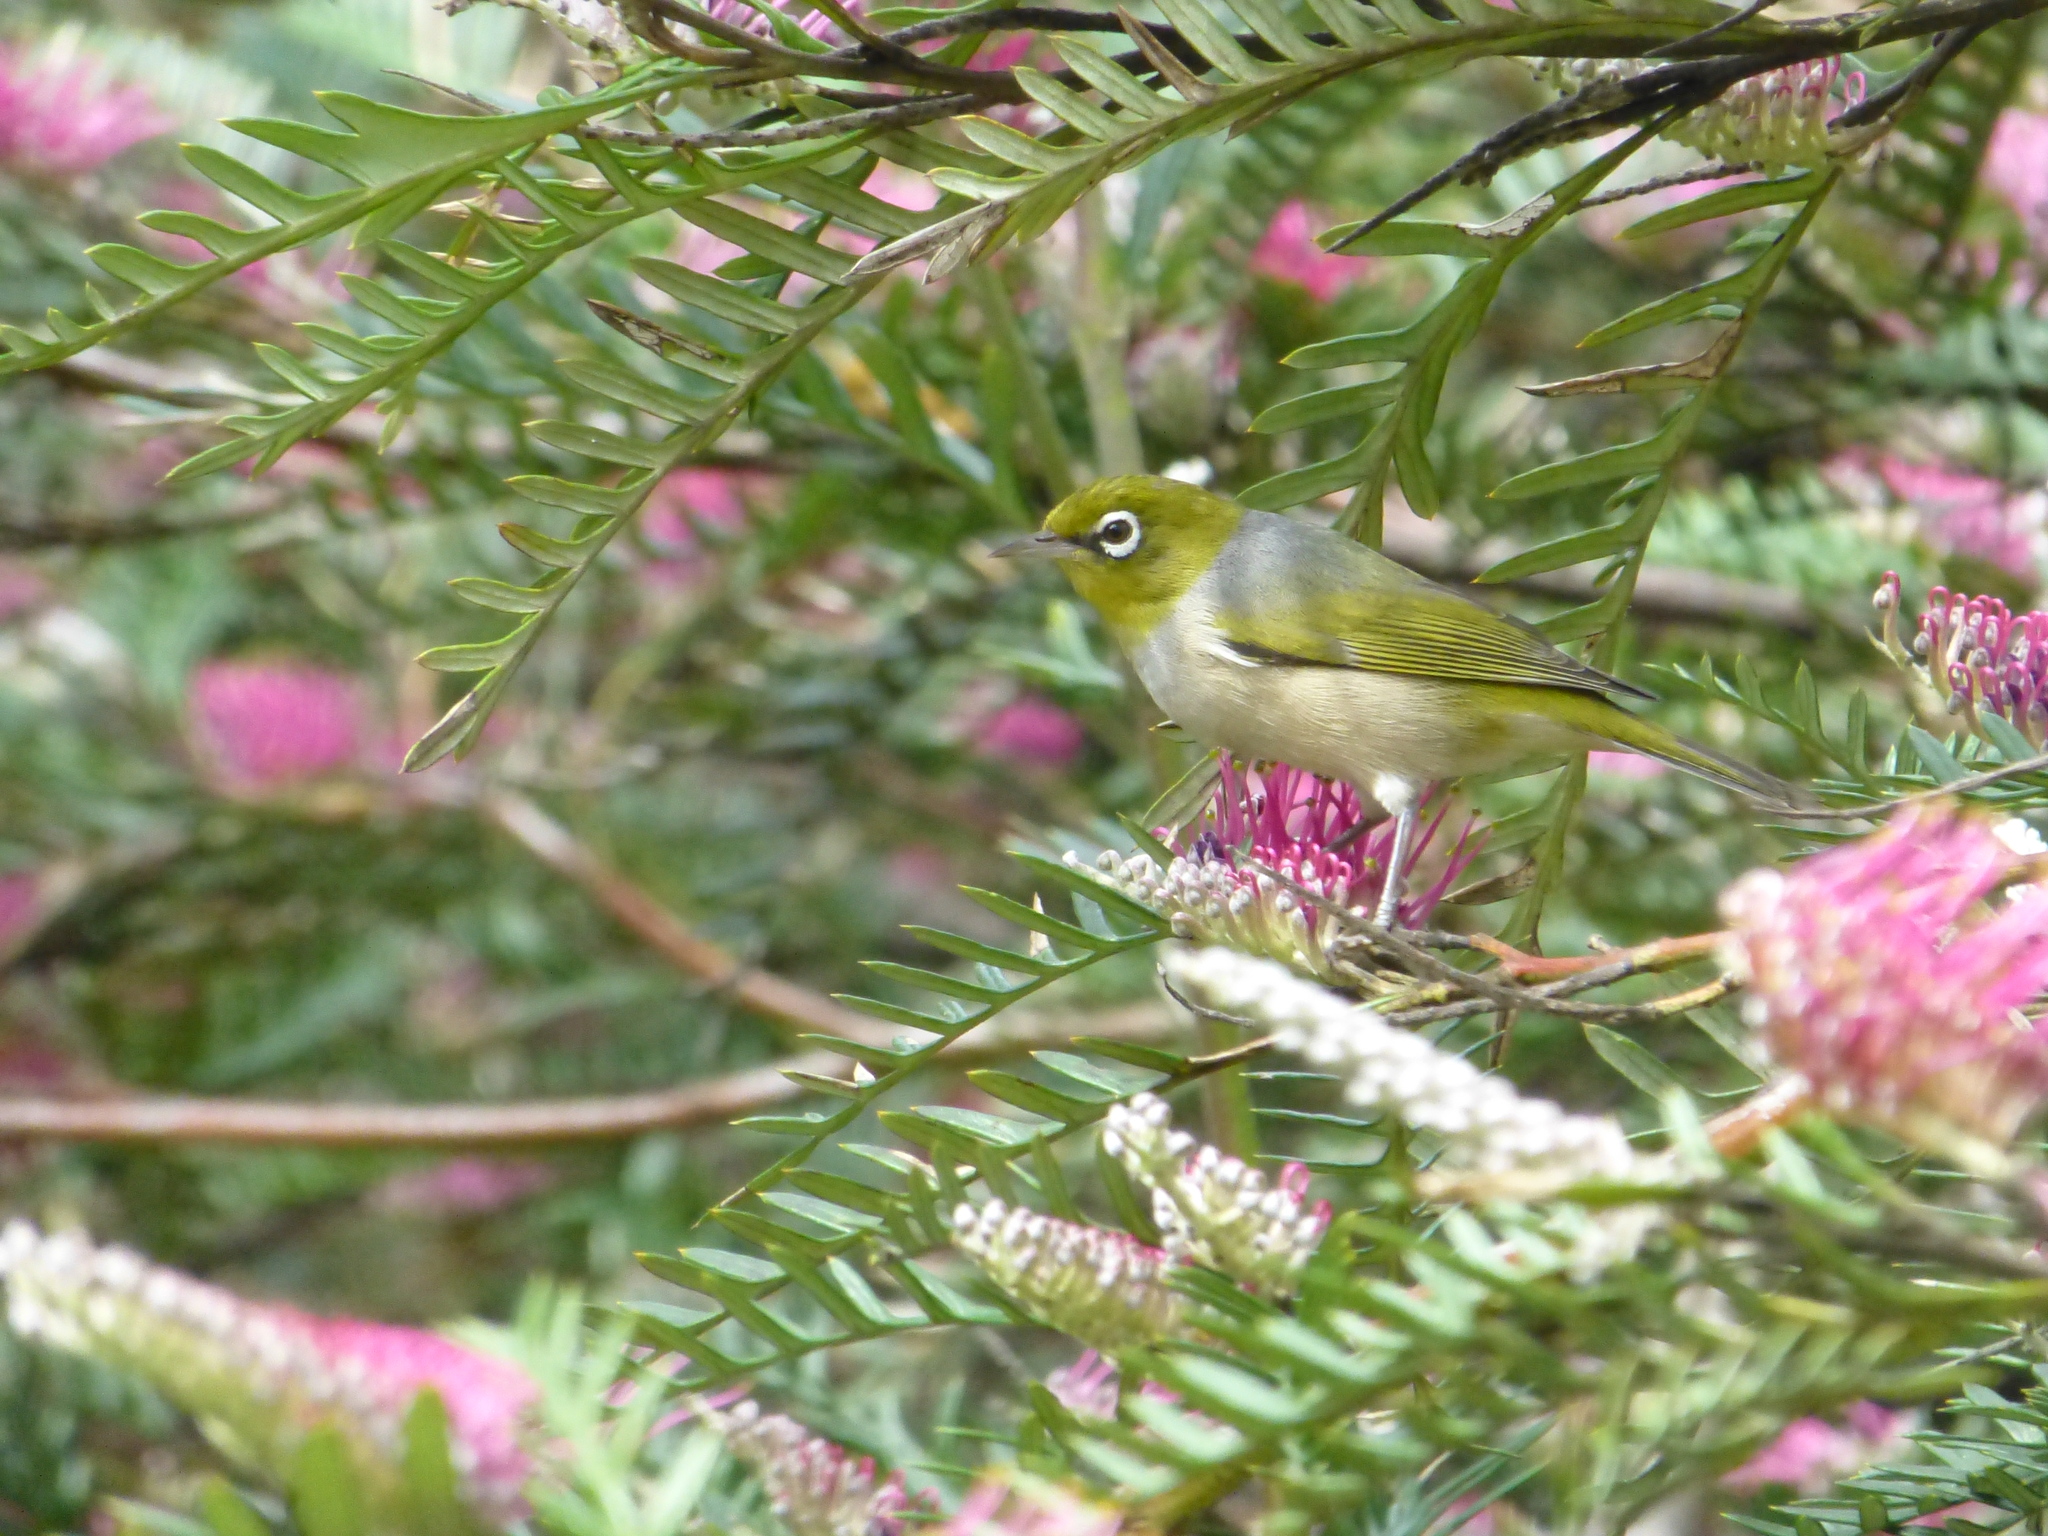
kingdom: Animalia
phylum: Chordata
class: Aves
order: Passeriformes
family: Zosteropidae
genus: Zosterops
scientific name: Zosterops lateralis
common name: Silvereye
